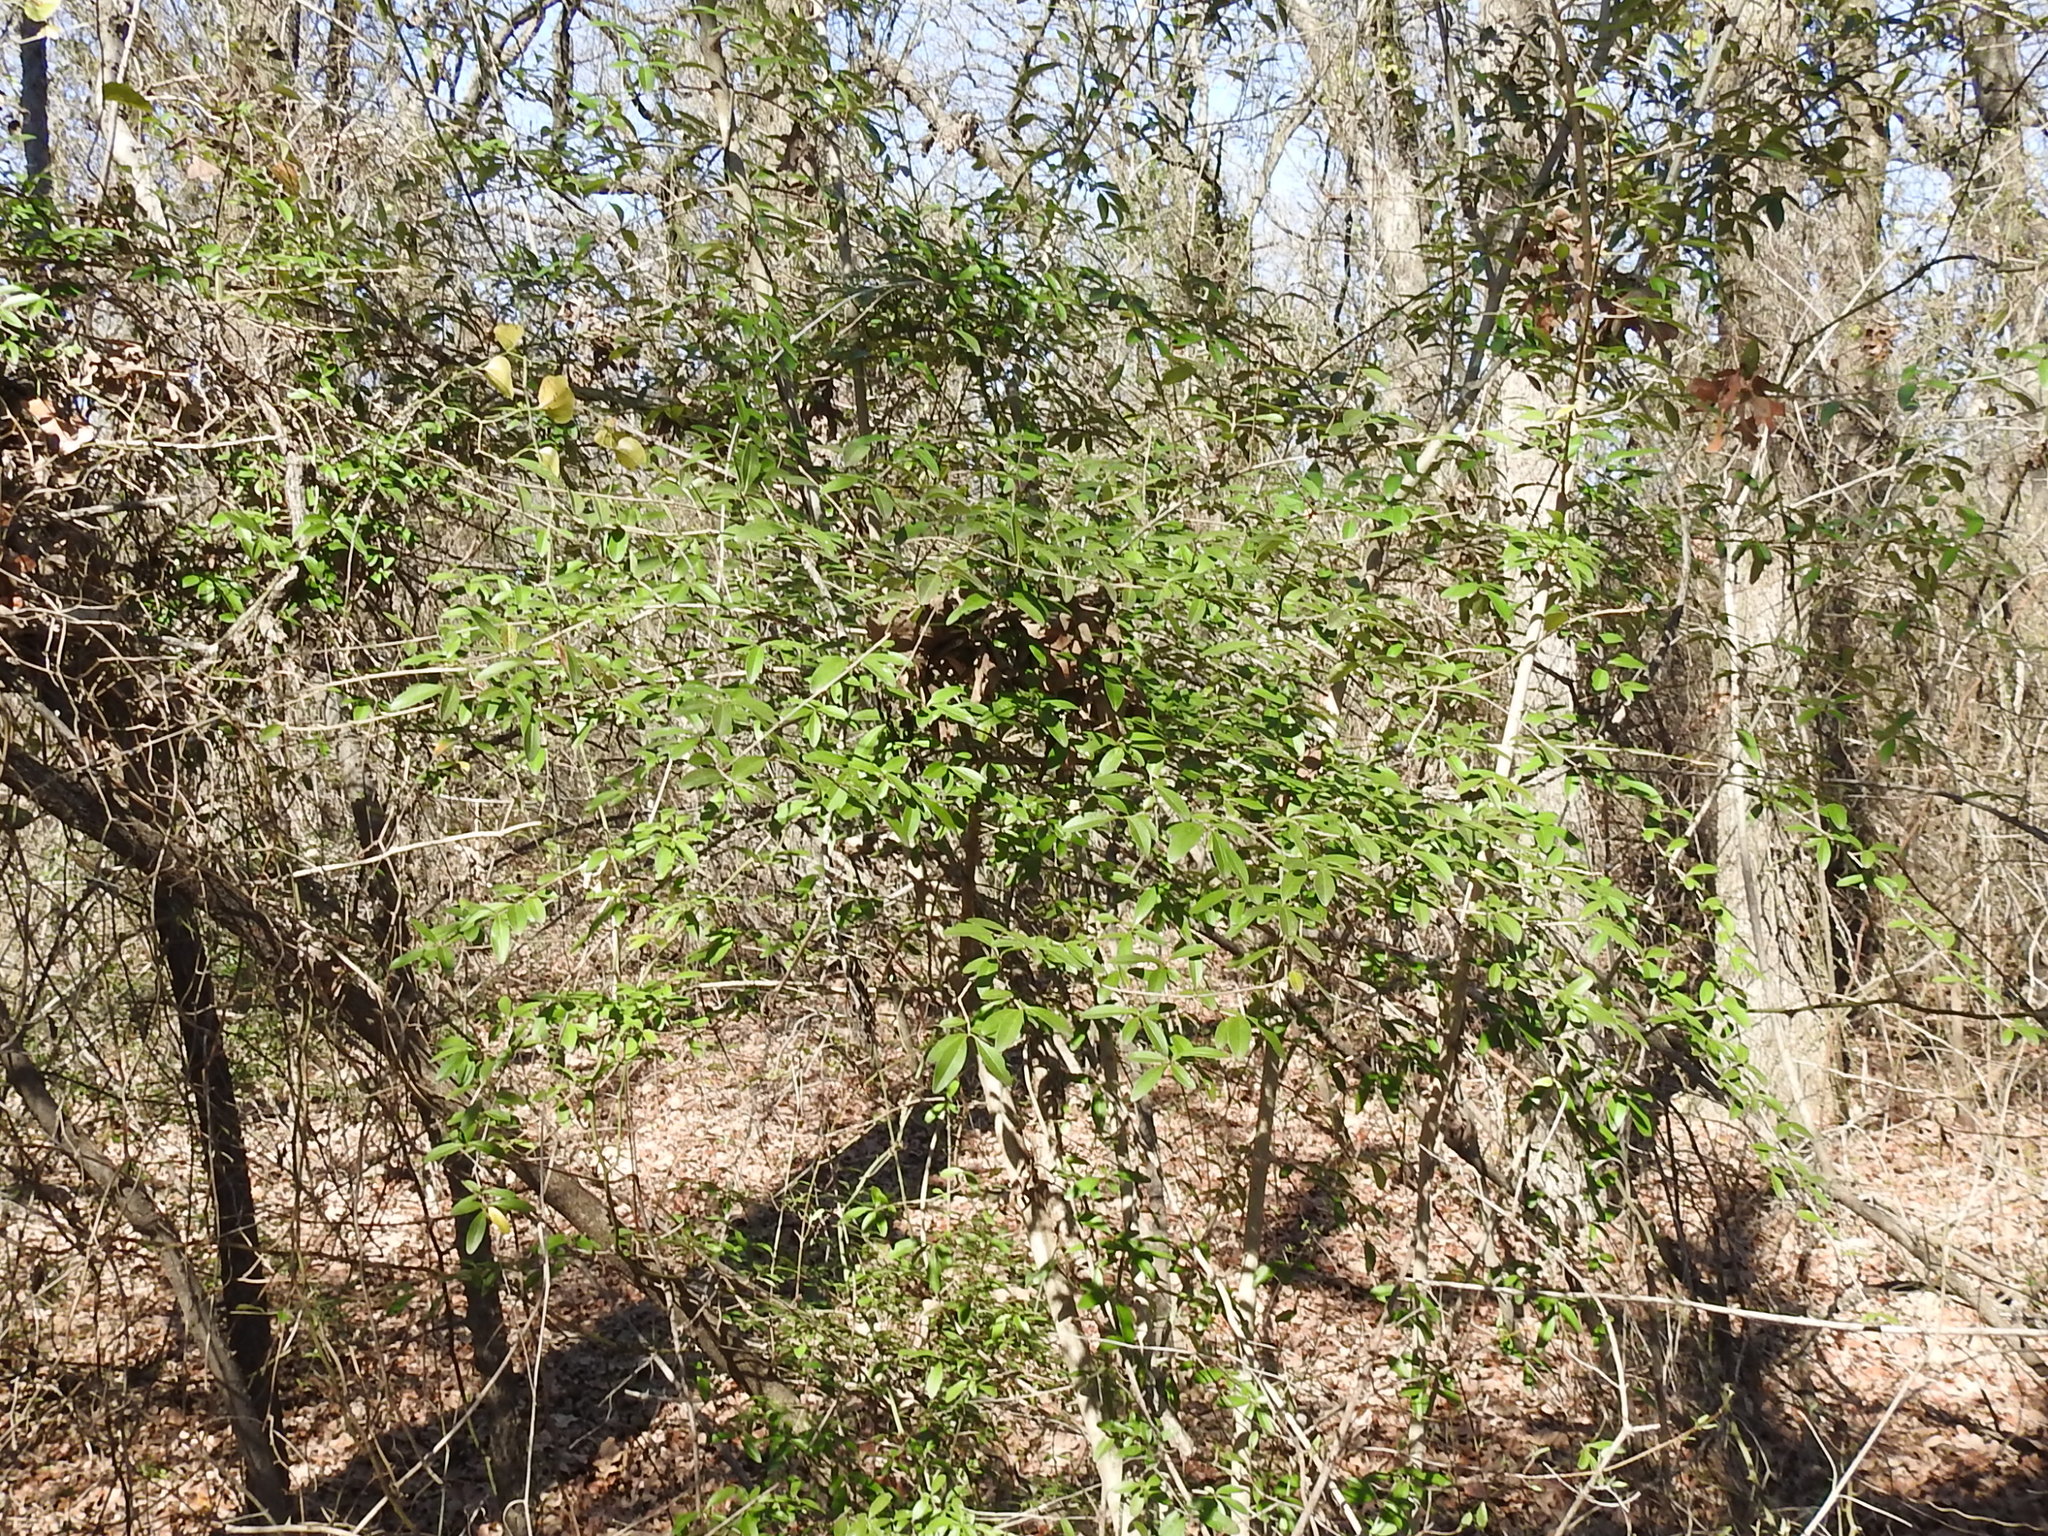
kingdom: Plantae
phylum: Tracheophyta
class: Magnoliopsida
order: Lamiales
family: Oleaceae
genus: Ligustrum
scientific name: Ligustrum quihoui
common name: Waxyleaf privet
